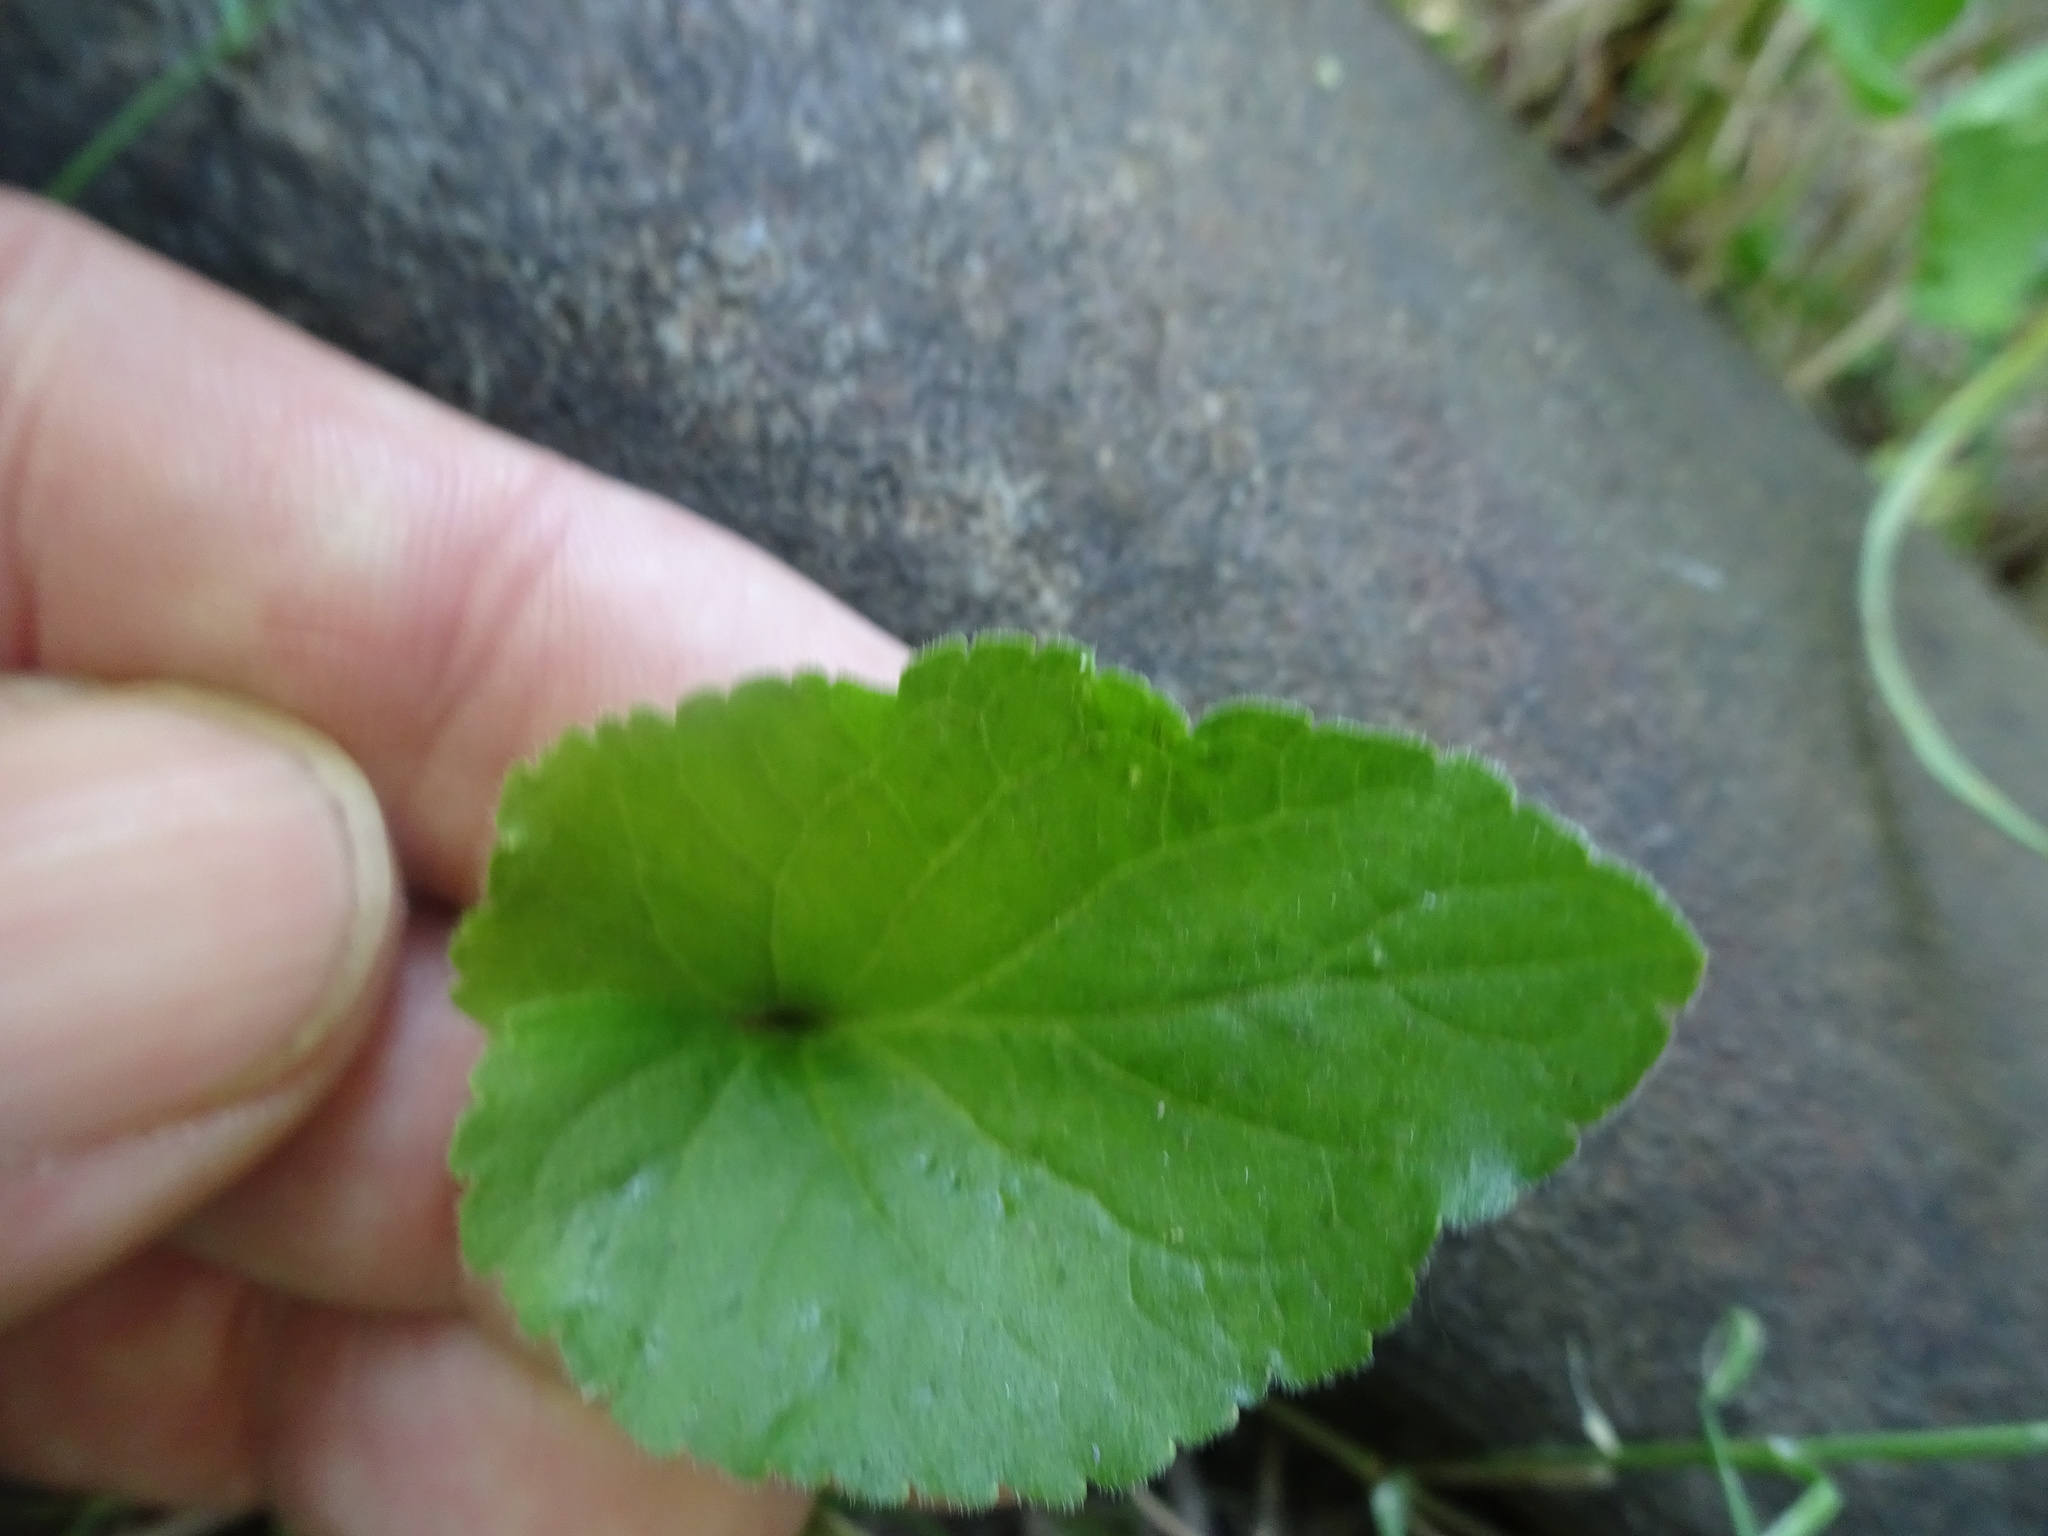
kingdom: Plantae
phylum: Tracheophyta
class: Magnoliopsida
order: Malpighiales
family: Violaceae
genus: Viola
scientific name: Viola odorata
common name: Sweet violet
